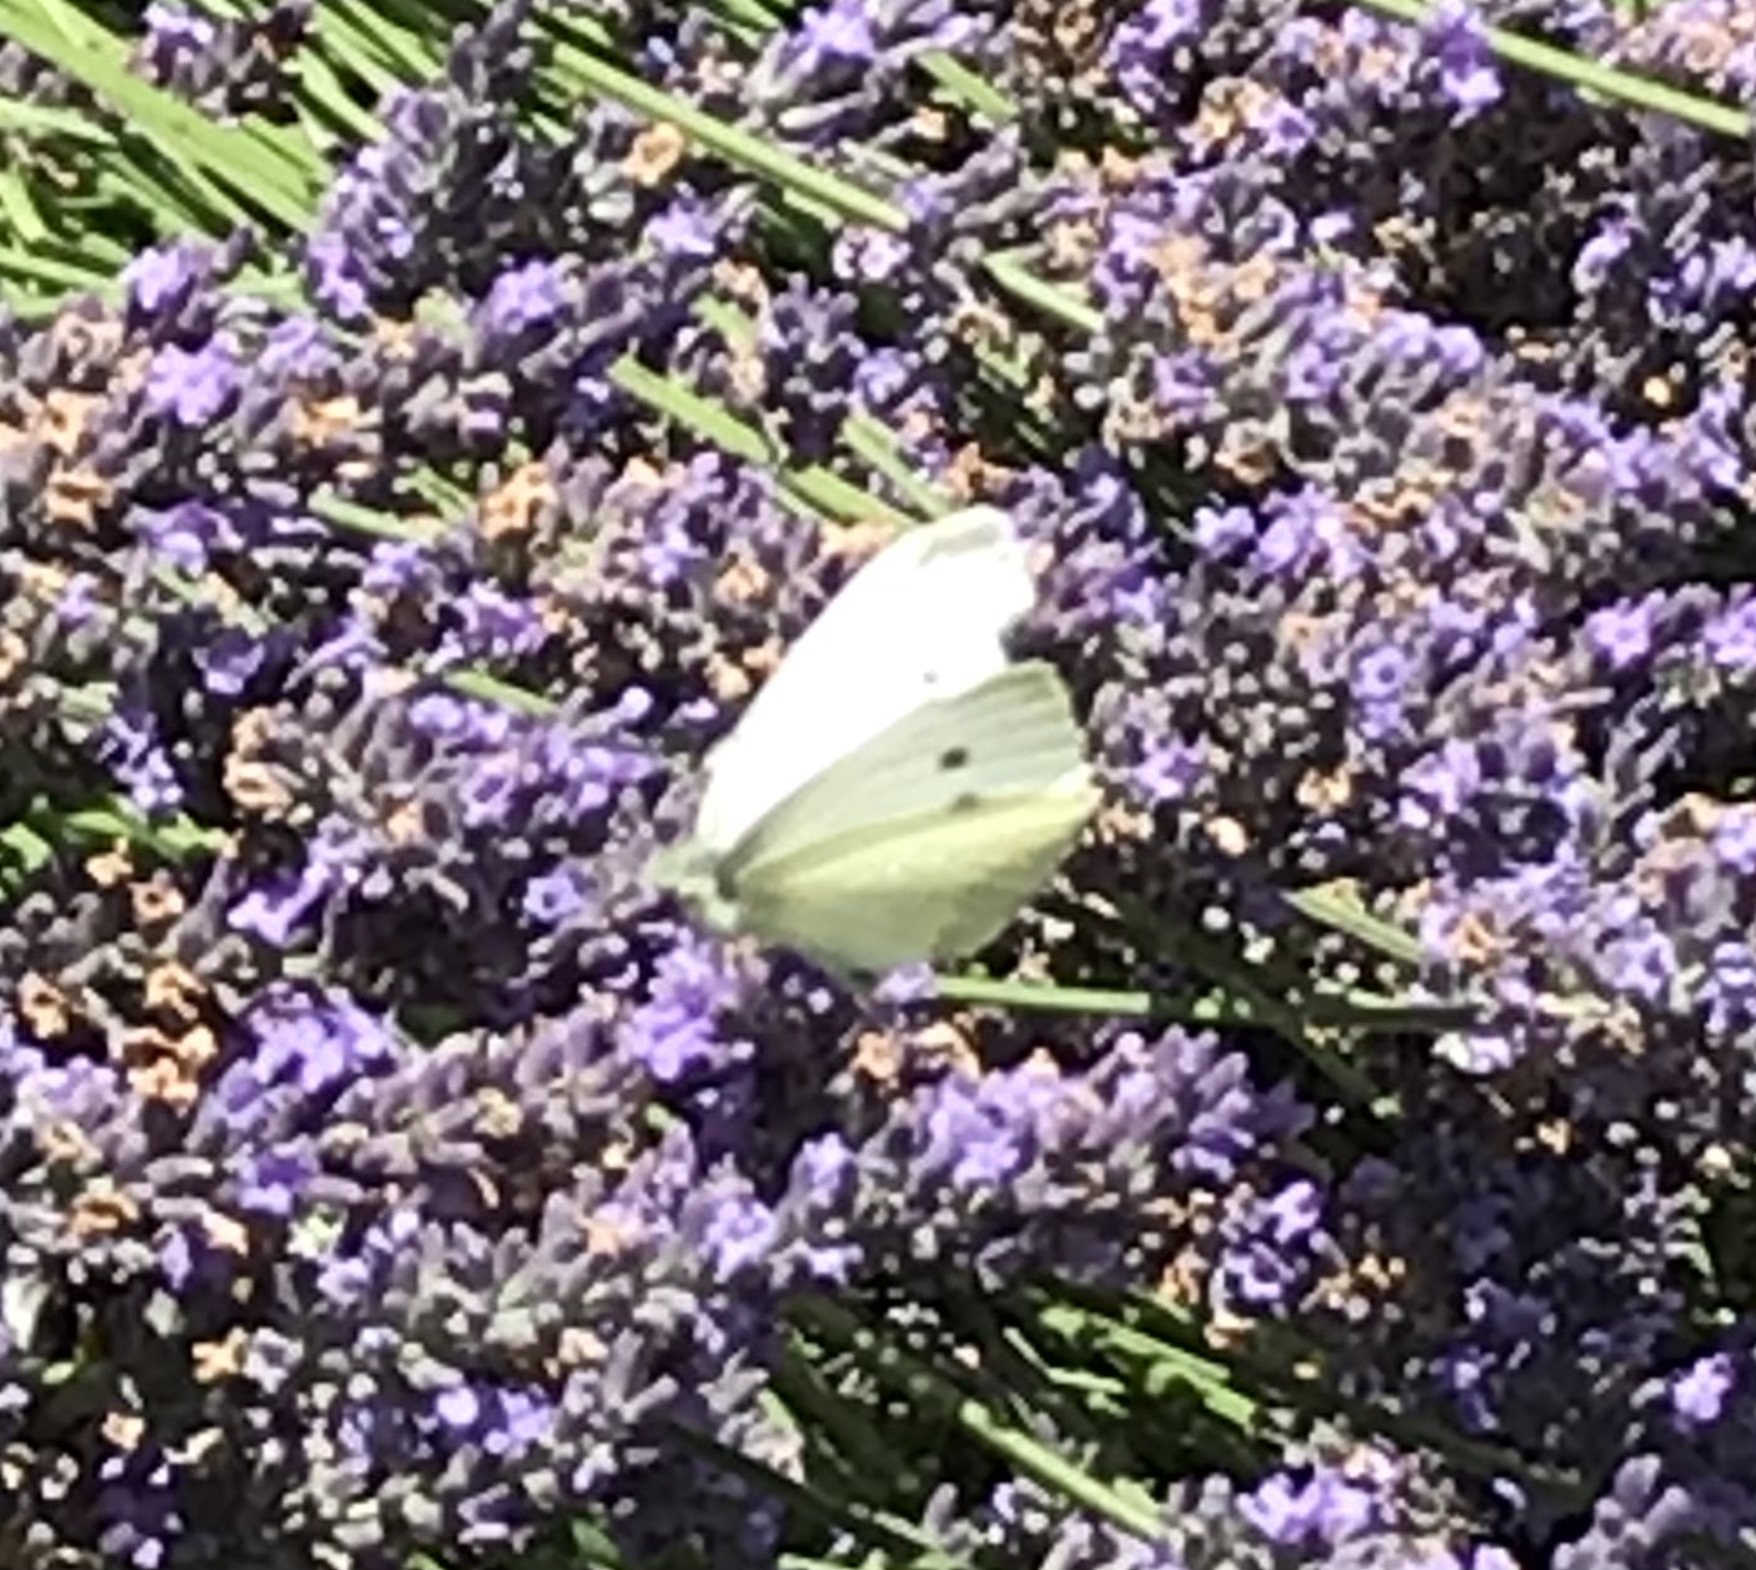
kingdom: Animalia
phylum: Arthropoda
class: Insecta
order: Lepidoptera
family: Pieridae
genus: Pieris
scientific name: Pieris rapae
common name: Small white
